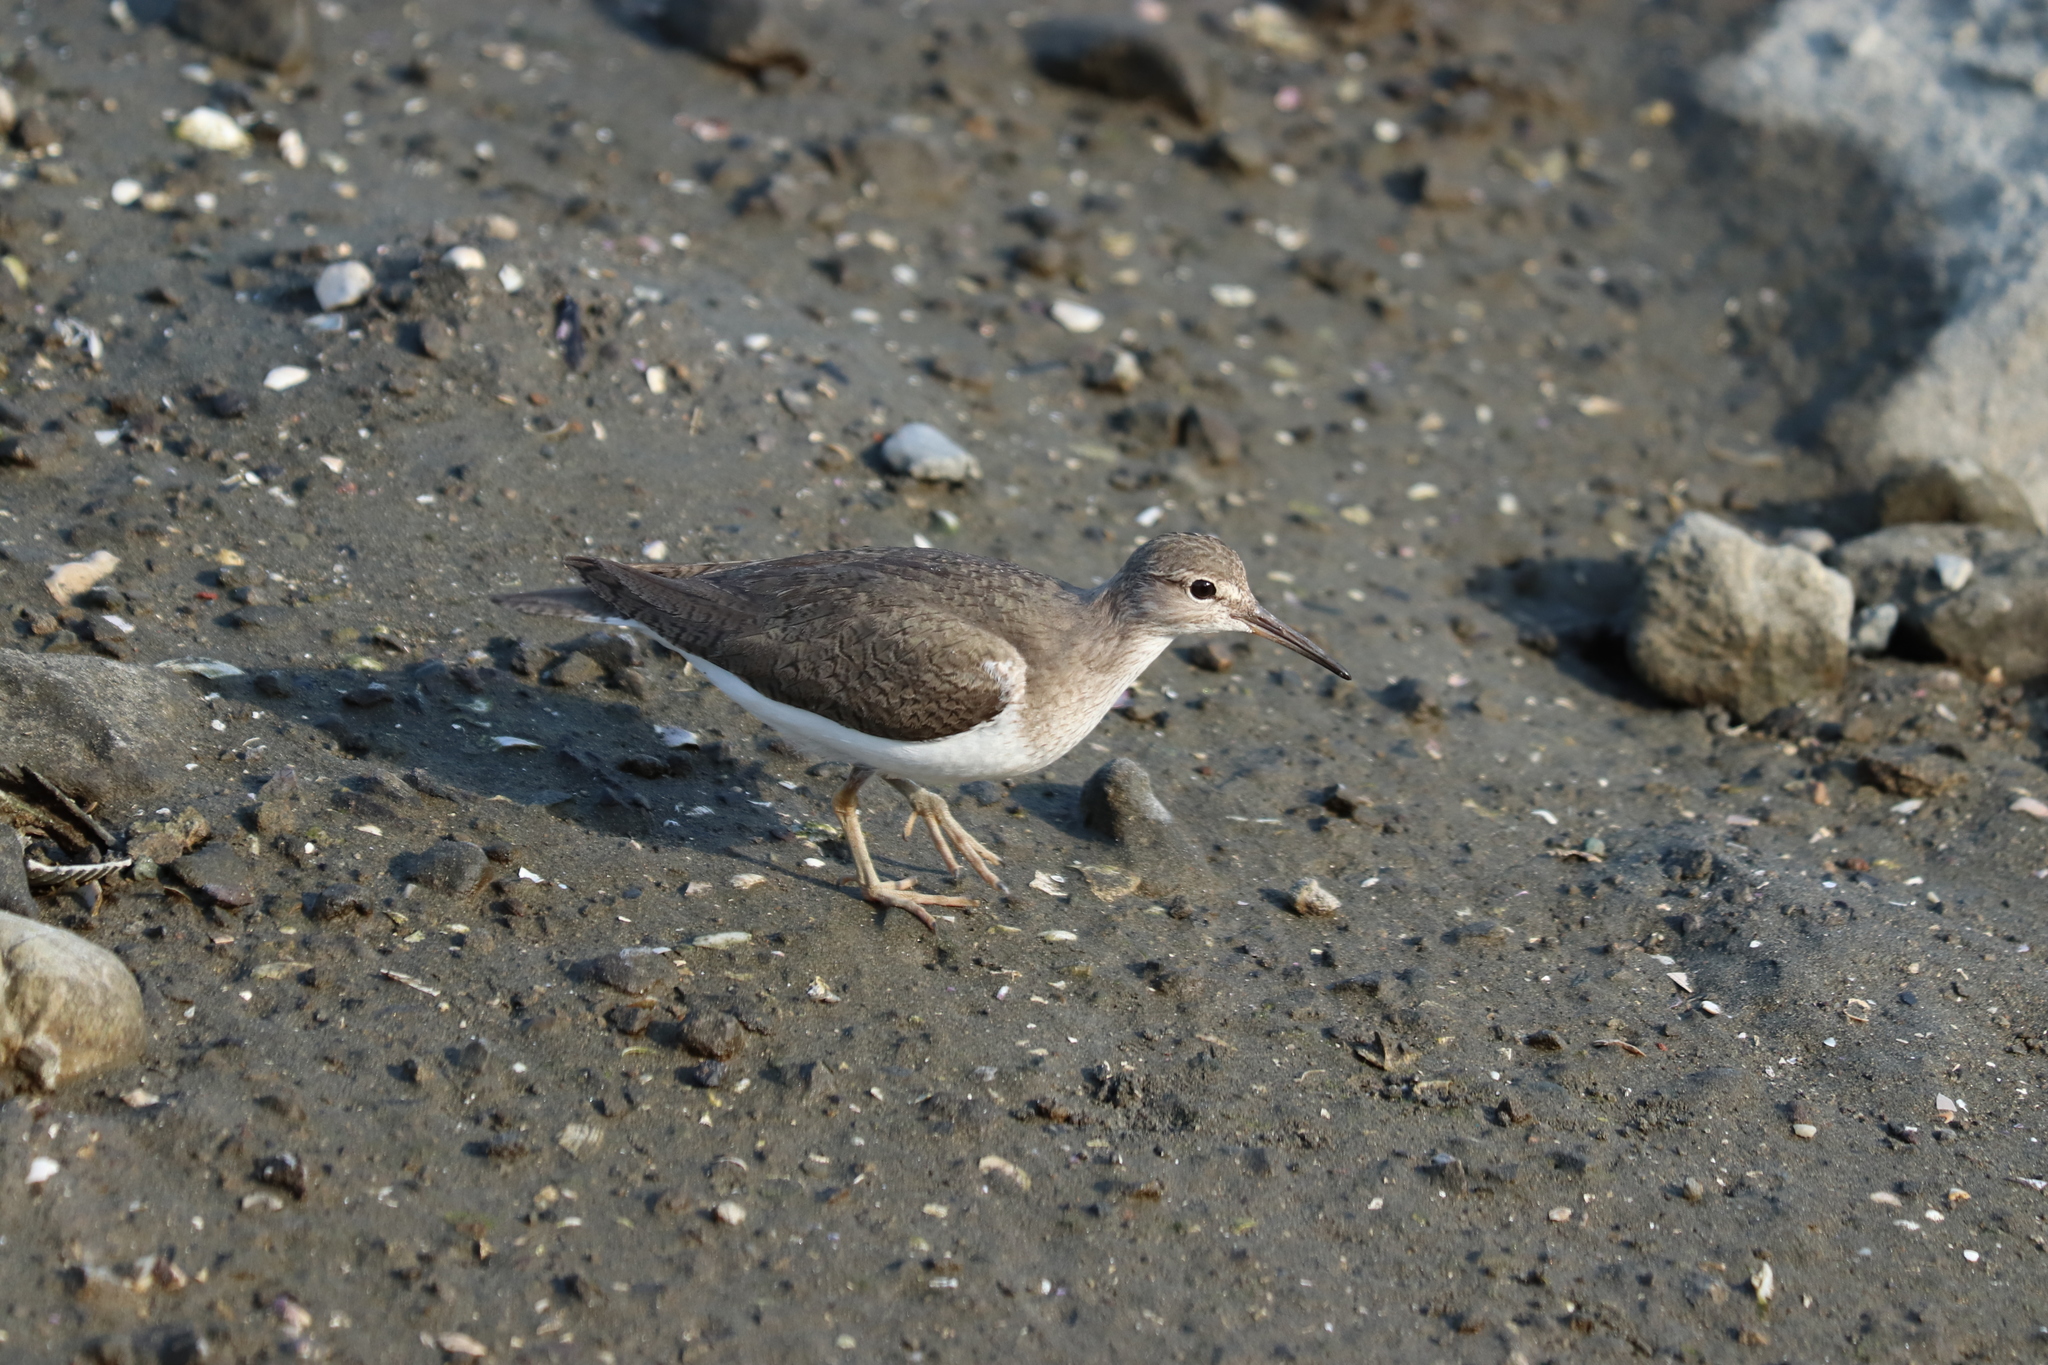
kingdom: Animalia
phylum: Chordata
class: Aves
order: Charadriiformes
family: Scolopacidae
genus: Actitis
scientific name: Actitis hypoleucos
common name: Common sandpiper
